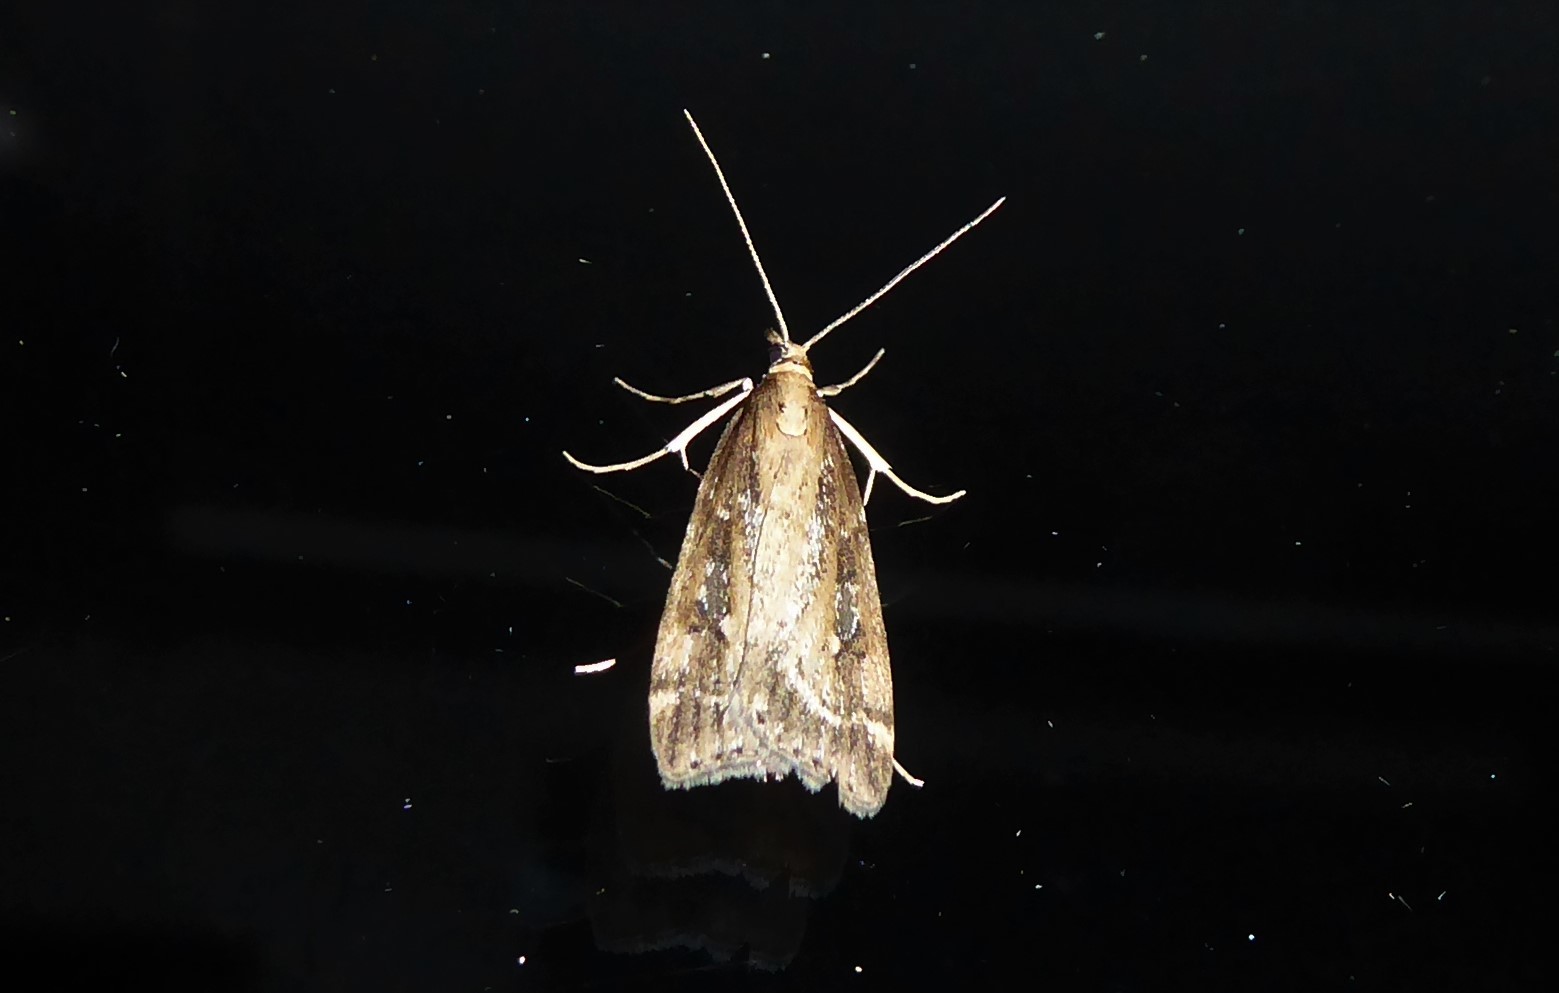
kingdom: Animalia
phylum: Arthropoda
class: Insecta
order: Lepidoptera
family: Crambidae
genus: Eudonia
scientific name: Eudonia octophora
